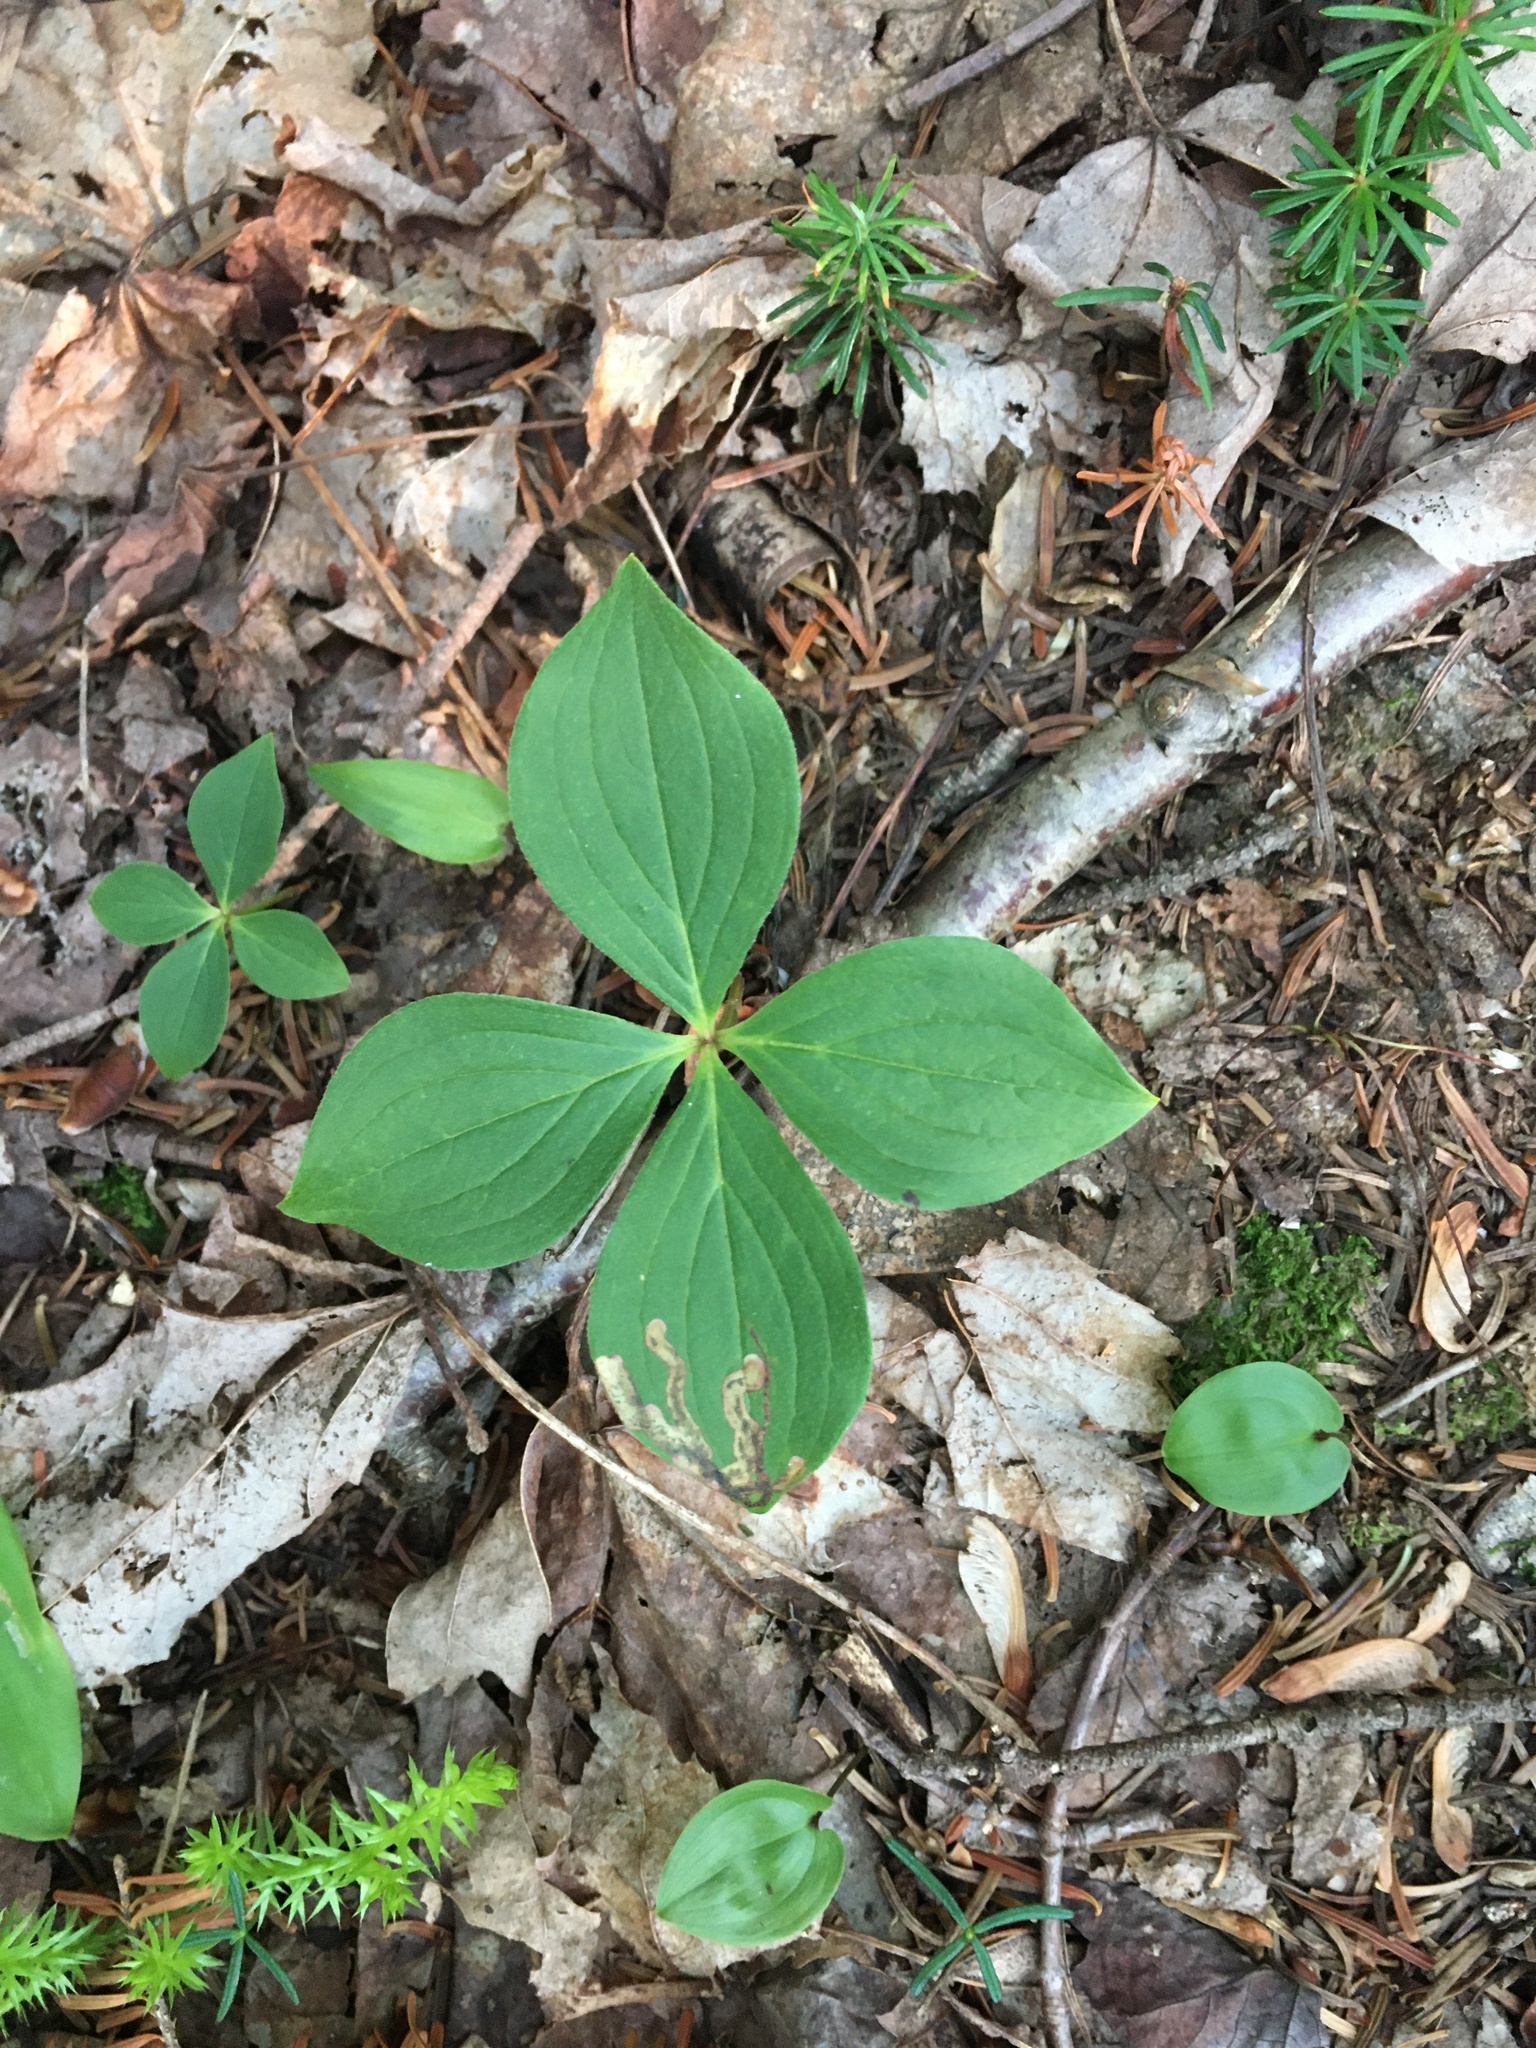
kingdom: Plantae
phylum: Tracheophyta
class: Magnoliopsida
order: Cornales
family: Cornaceae
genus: Cornus
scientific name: Cornus canadensis
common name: Creeping dogwood
